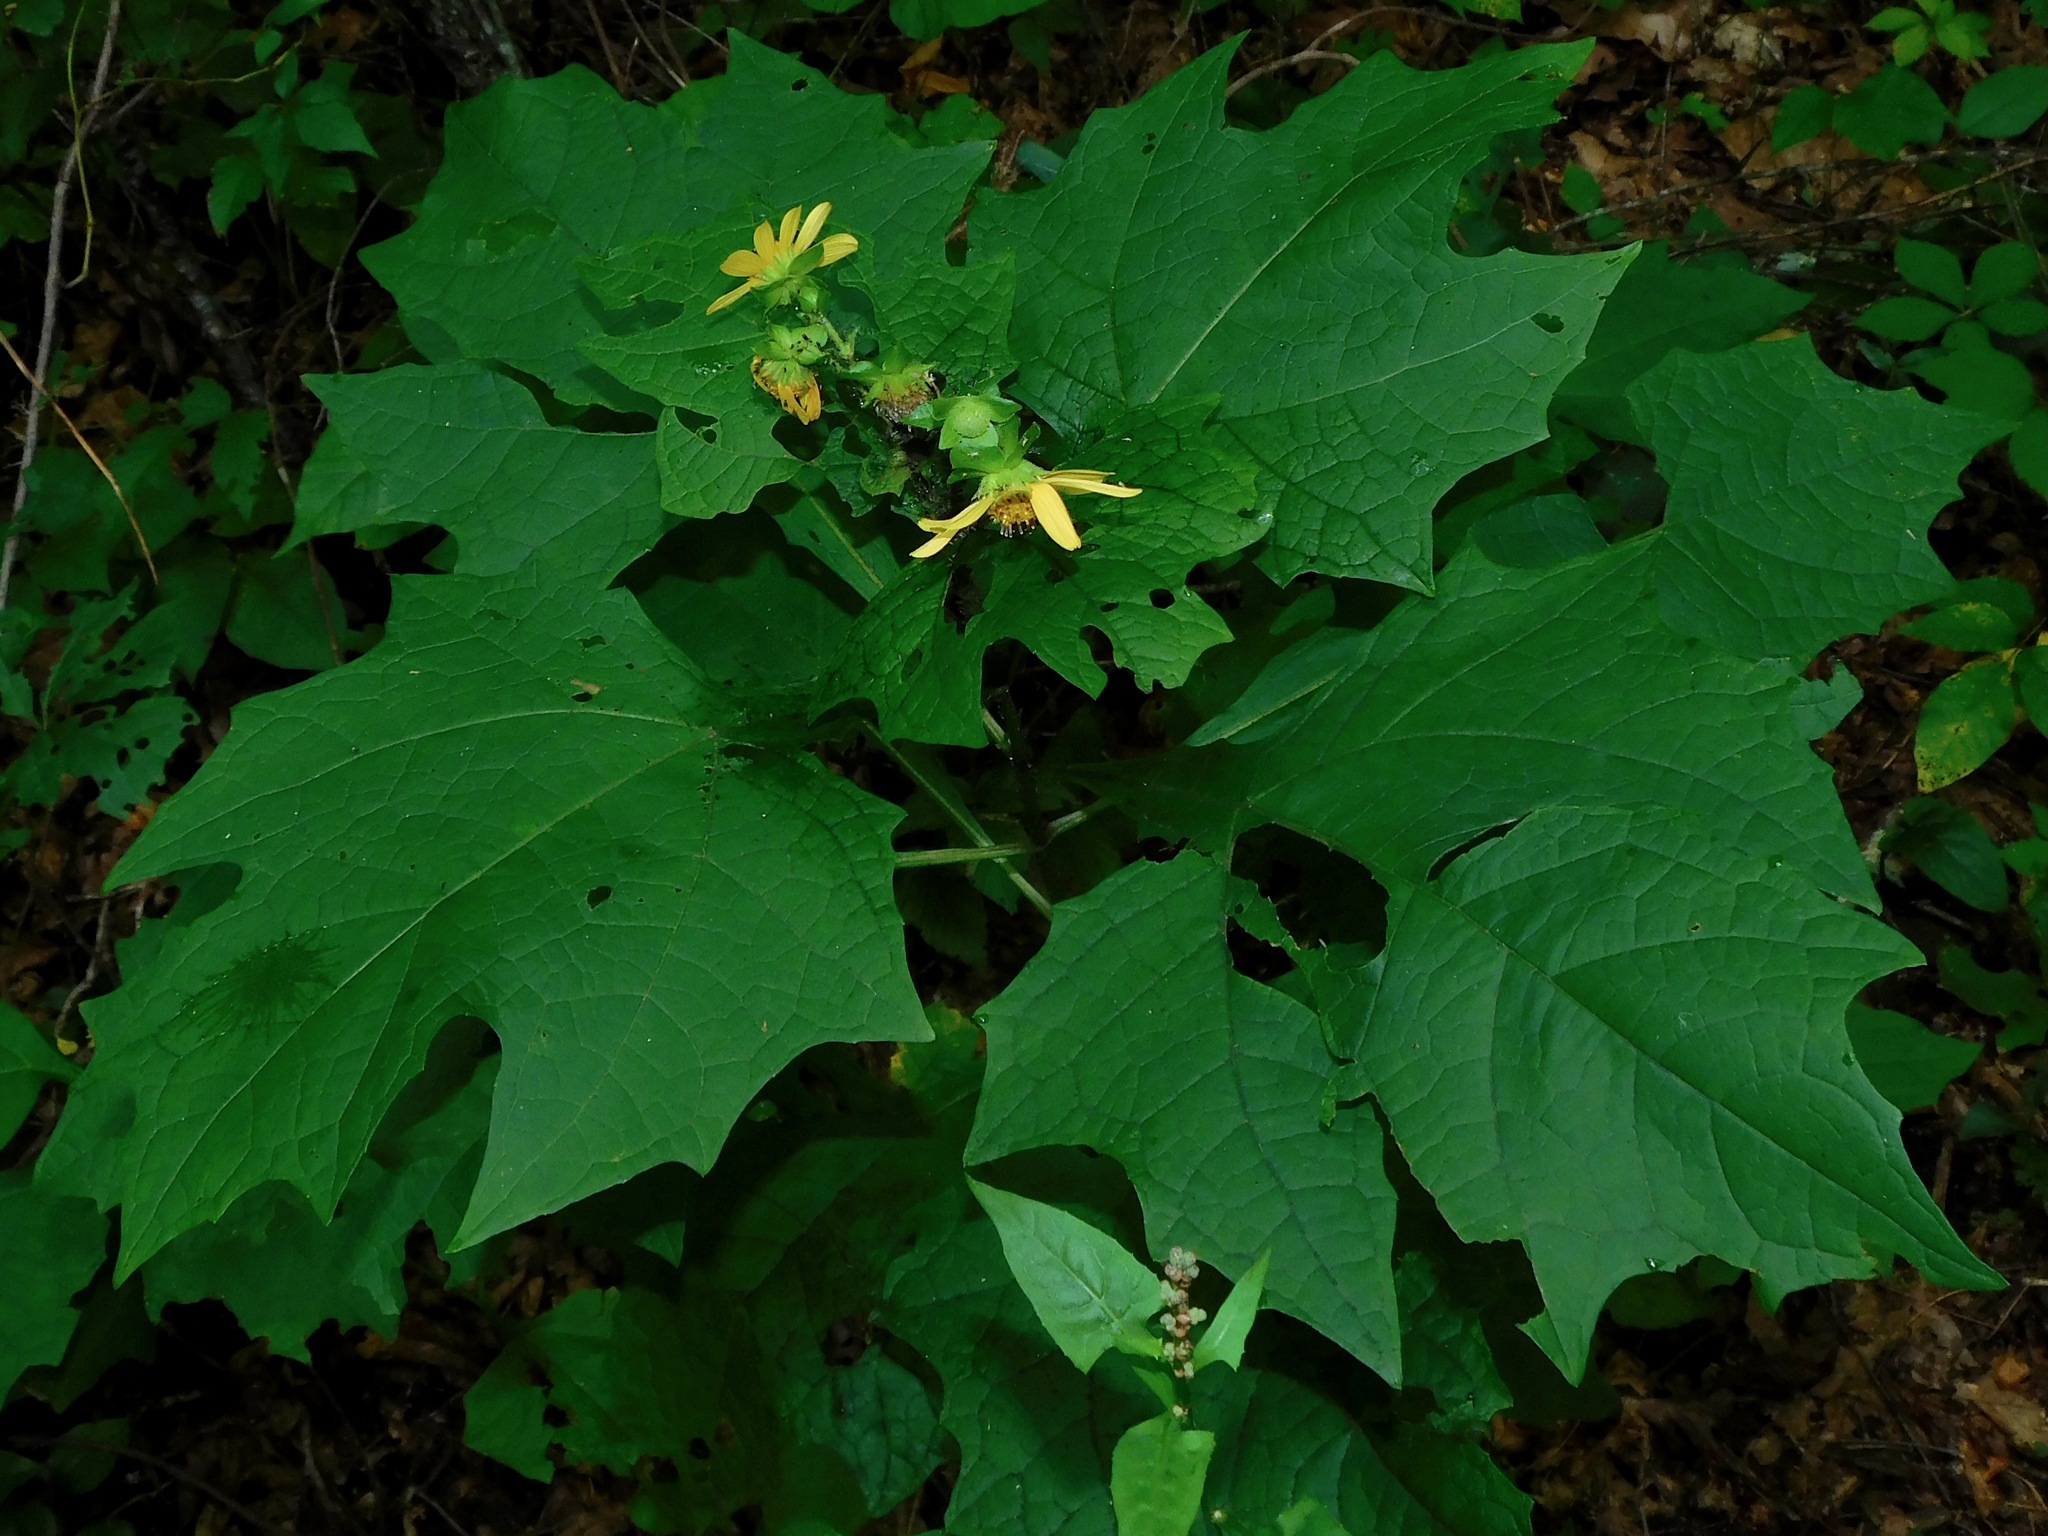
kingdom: Plantae
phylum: Tracheophyta
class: Magnoliopsida
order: Asterales
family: Asteraceae
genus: Smallanthus
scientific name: Smallanthus uvedalia
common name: Bear's-foot
